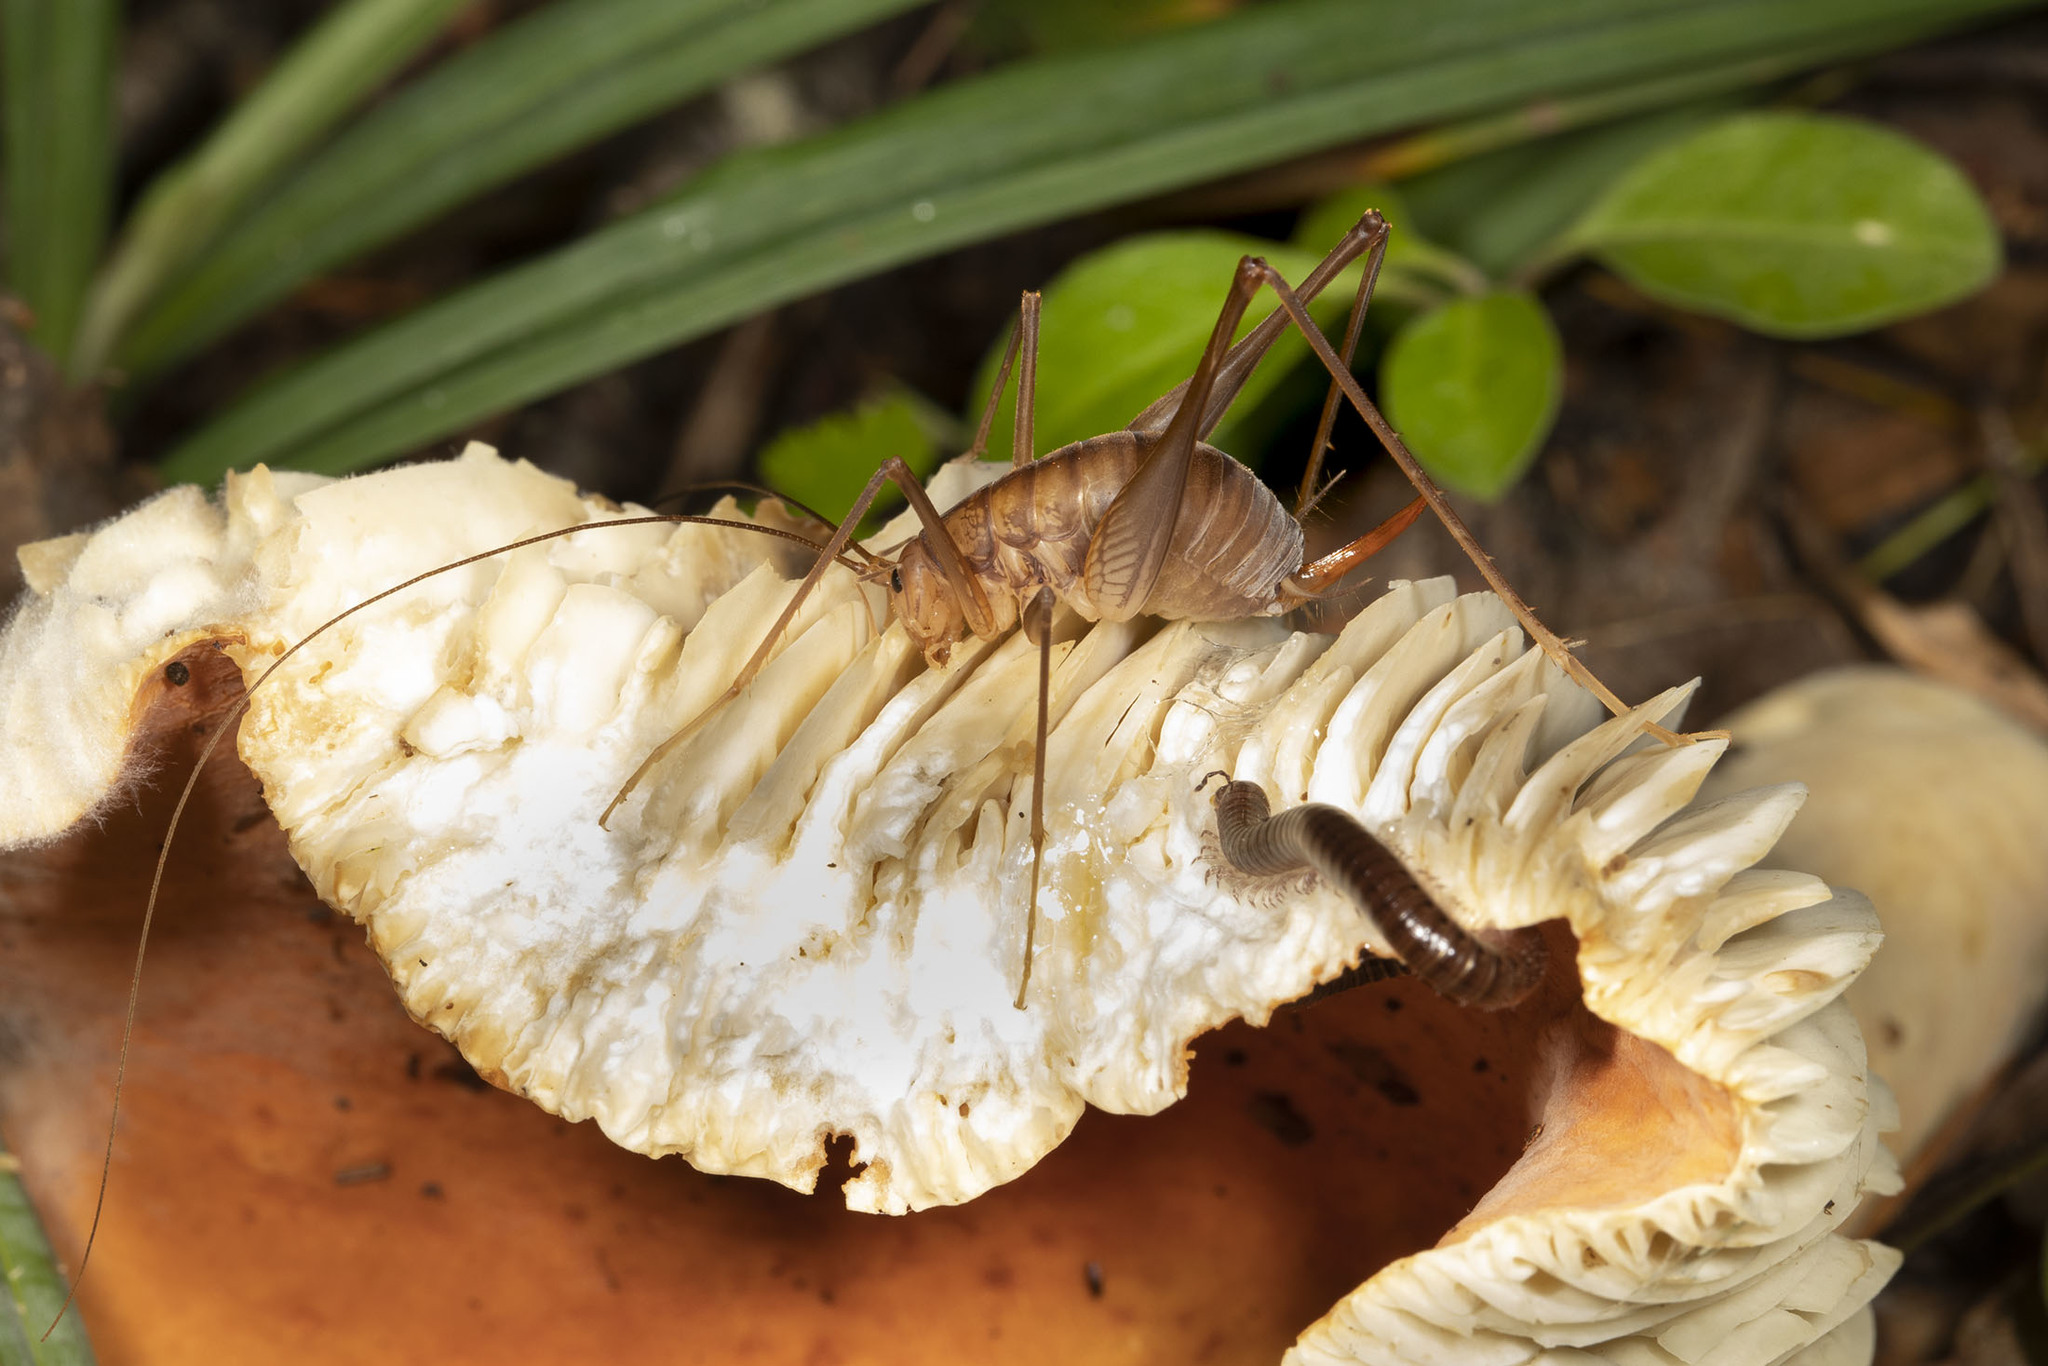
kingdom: Animalia
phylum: Arthropoda
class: Insecta
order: Orthoptera
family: Rhaphidophoridae
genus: Euhadenoecus
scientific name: Euhadenoecus puteanus
